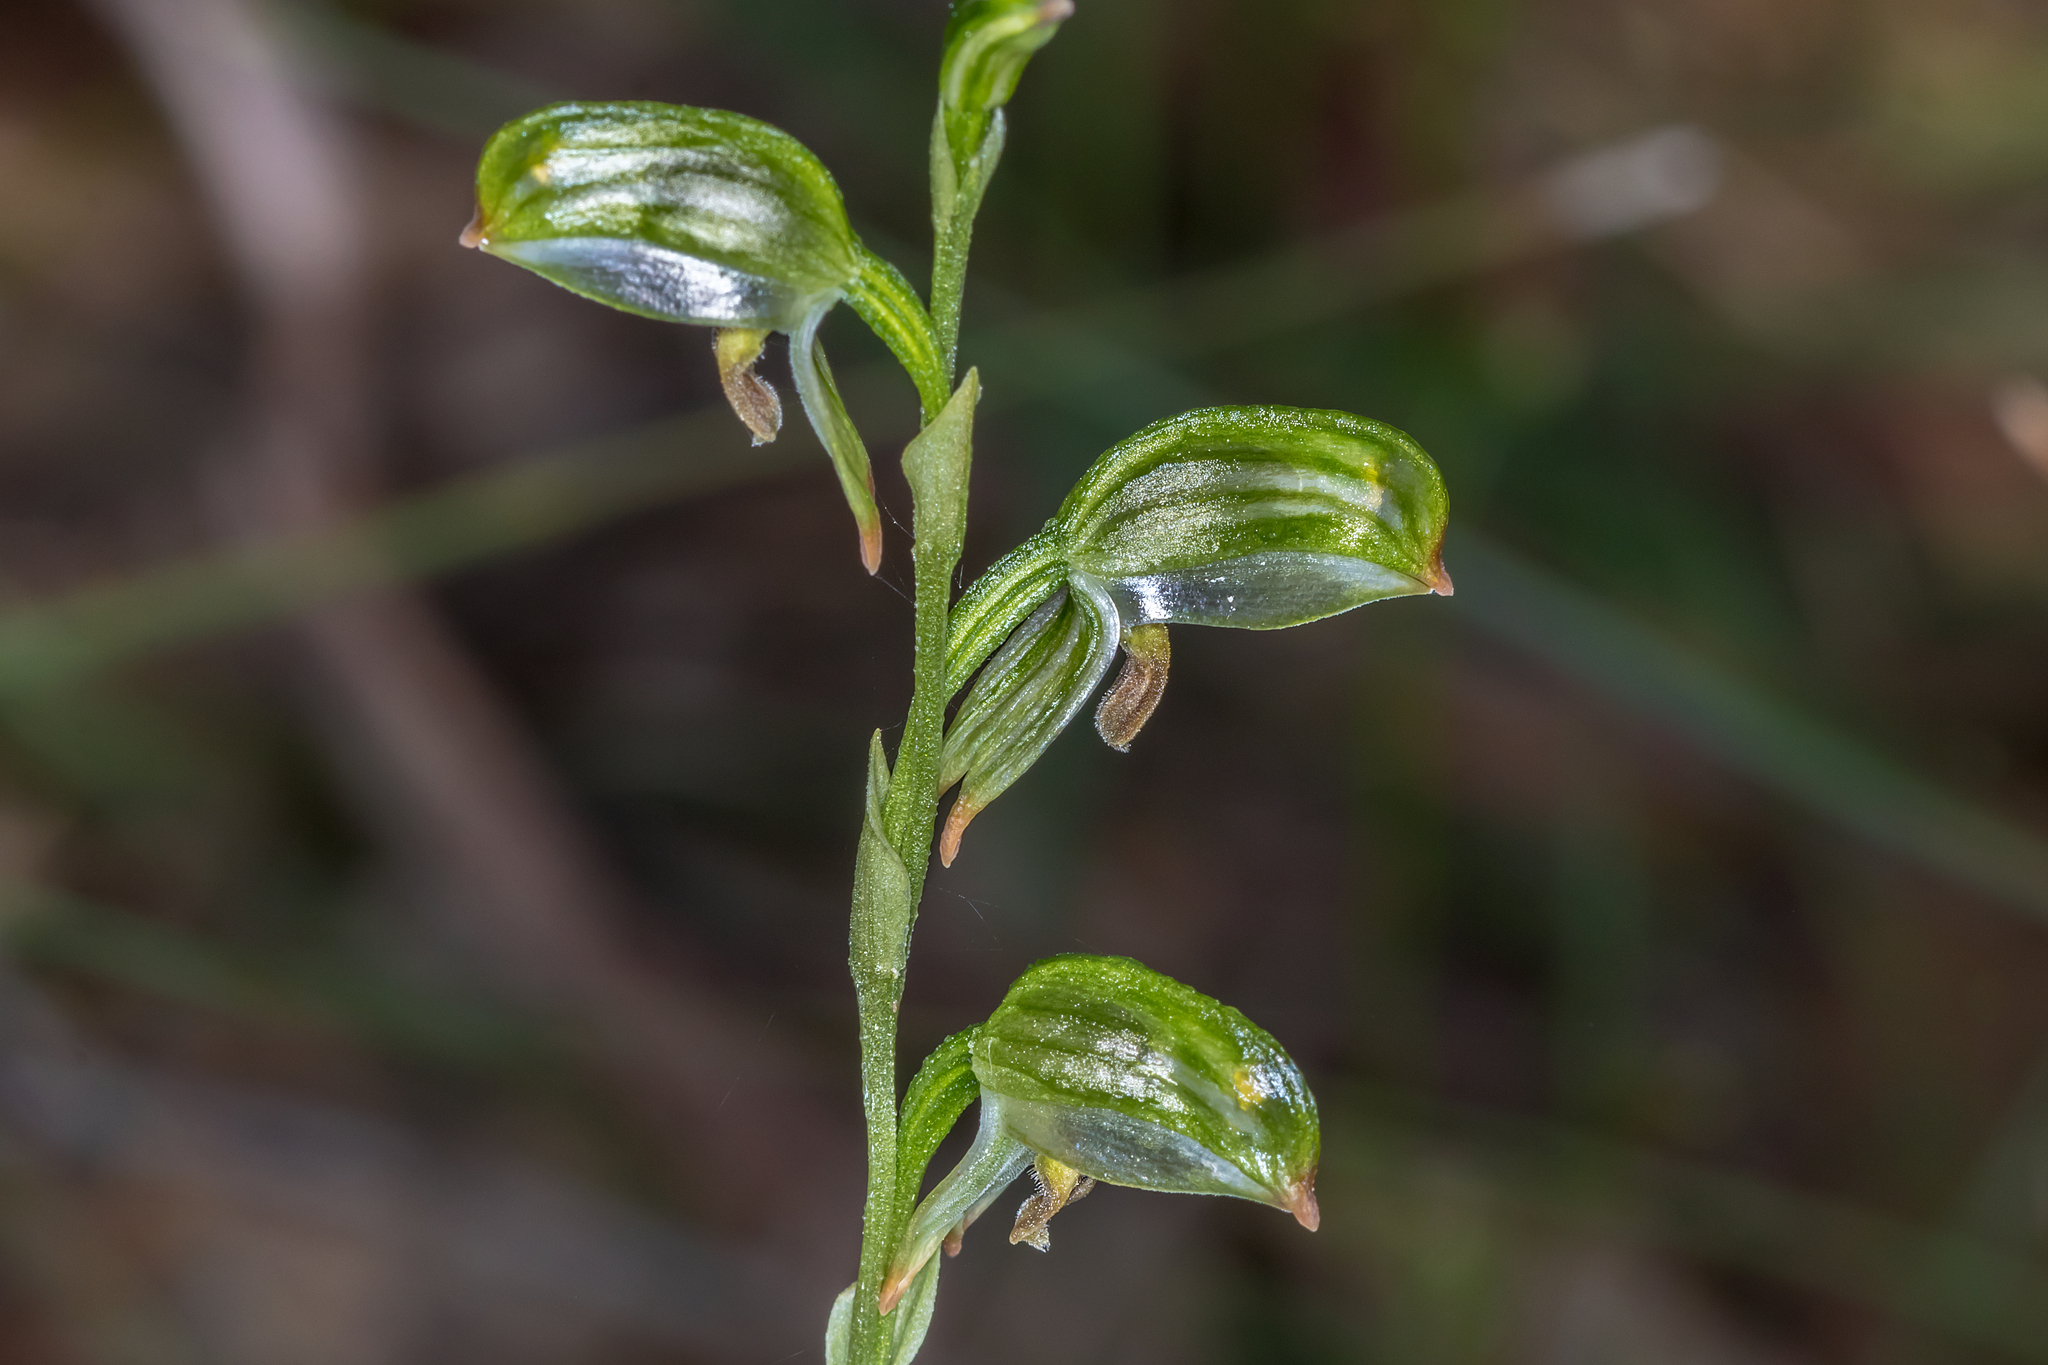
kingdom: Plantae
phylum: Tracheophyta
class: Liliopsida
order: Asparagales
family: Orchidaceae
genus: Pterostylis
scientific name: Pterostylis melagramma
